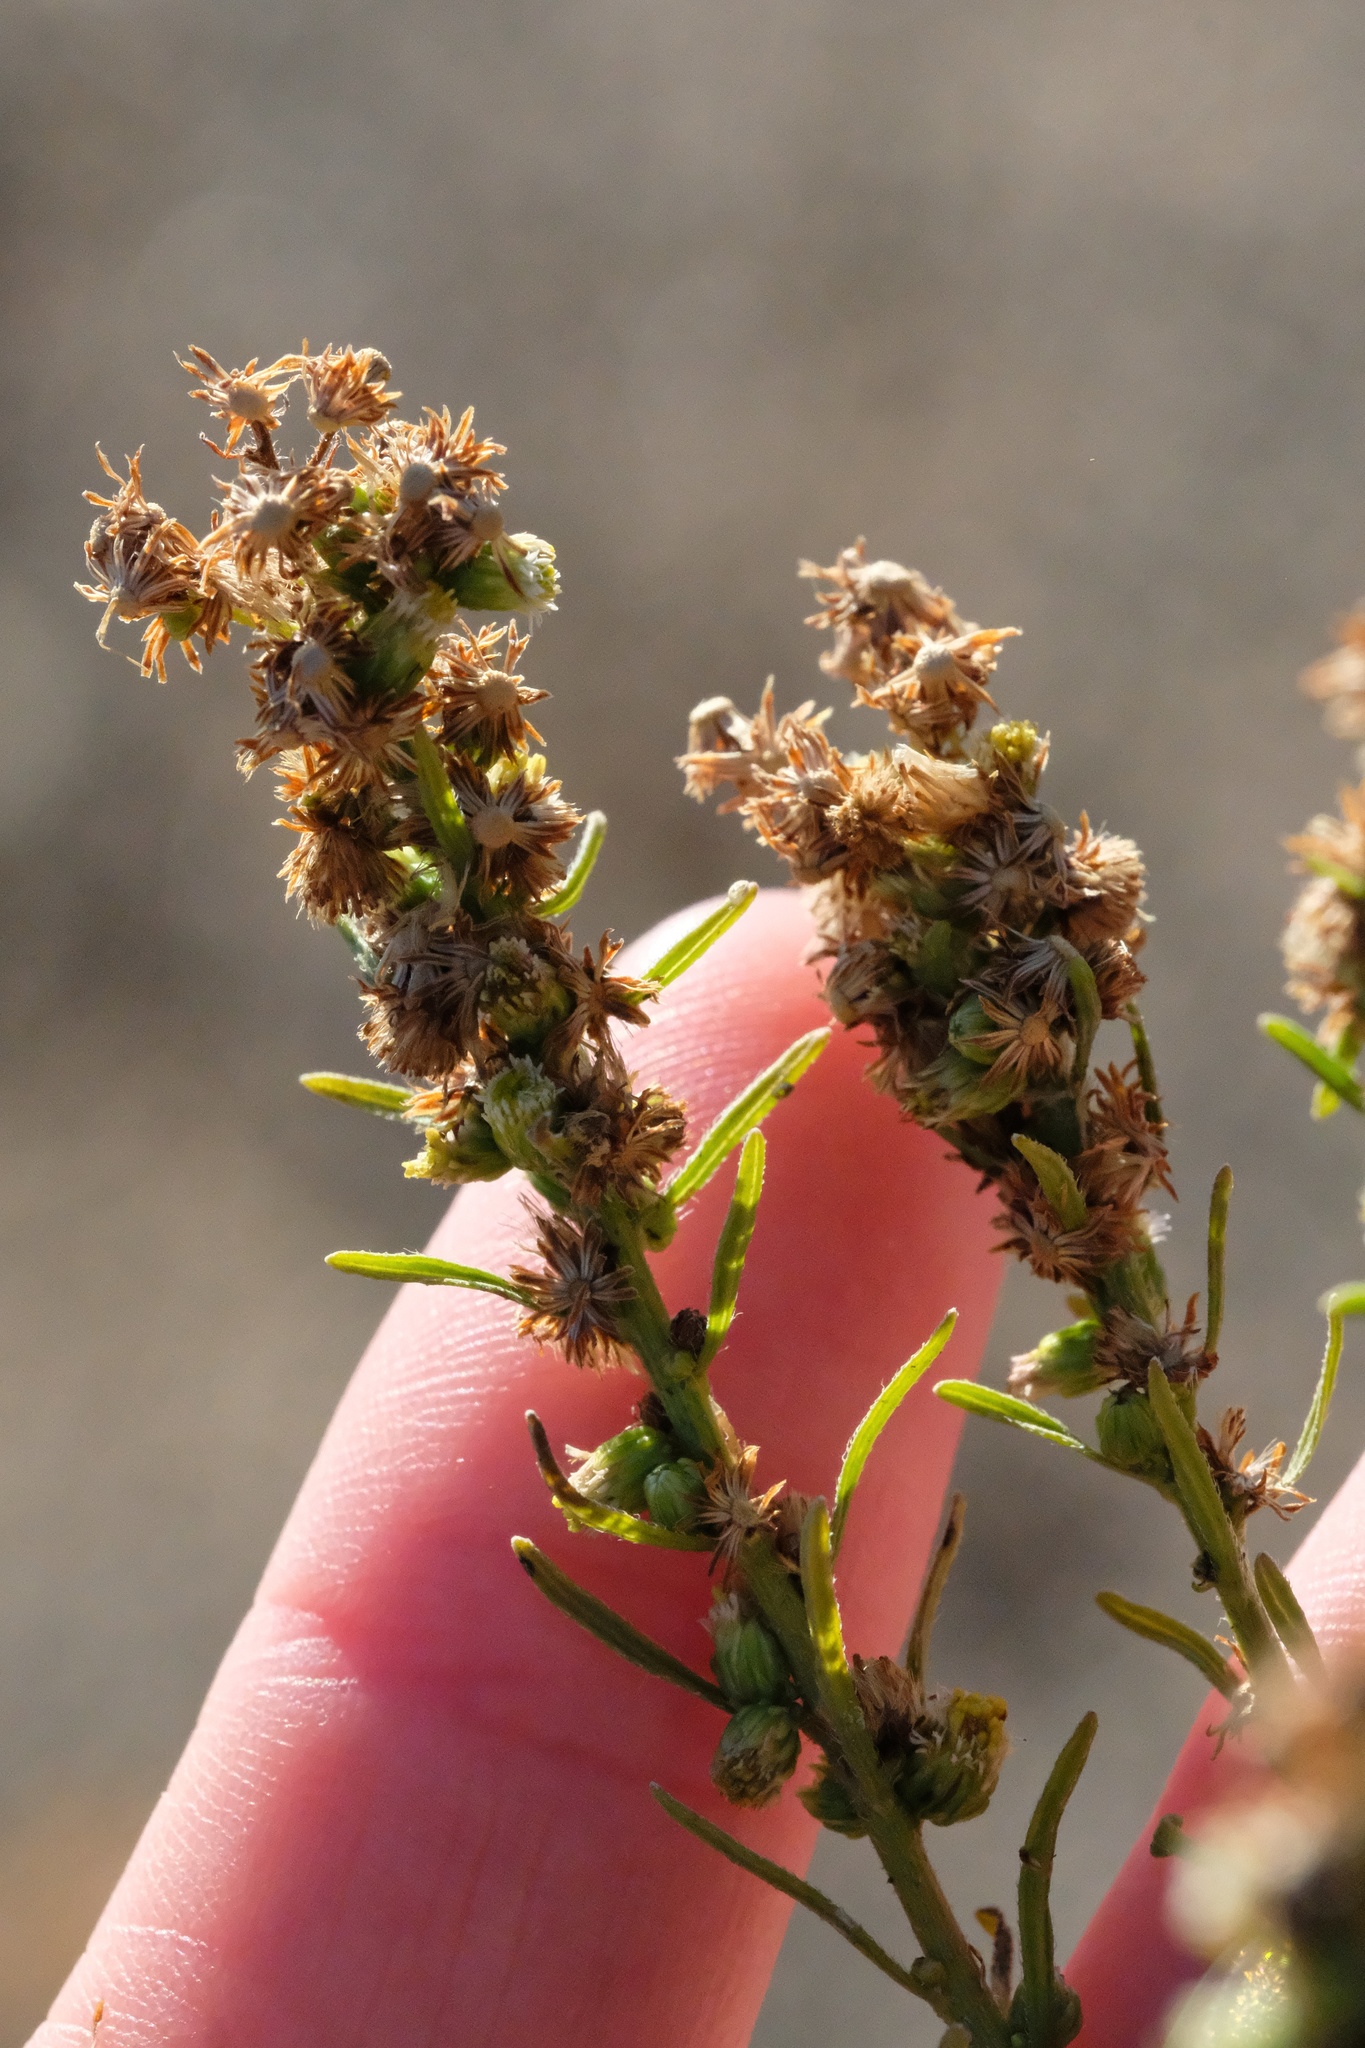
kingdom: Plantae
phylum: Tracheophyta
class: Magnoliopsida
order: Asterales
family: Asteraceae
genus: Erigeron
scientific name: Erigeron canadensis
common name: Canadian fleabane
